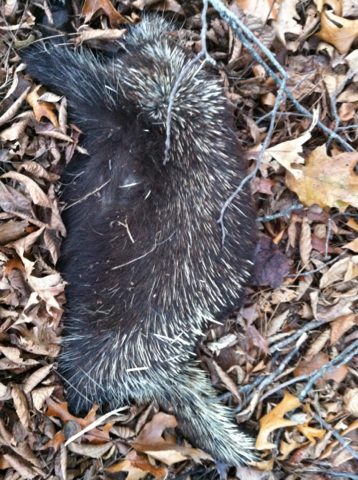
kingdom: Animalia
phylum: Chordata
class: Mammalia
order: Rodentia
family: Erethizontidae
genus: Erethizon
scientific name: Erethizon dorsatus
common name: North american porcupine
